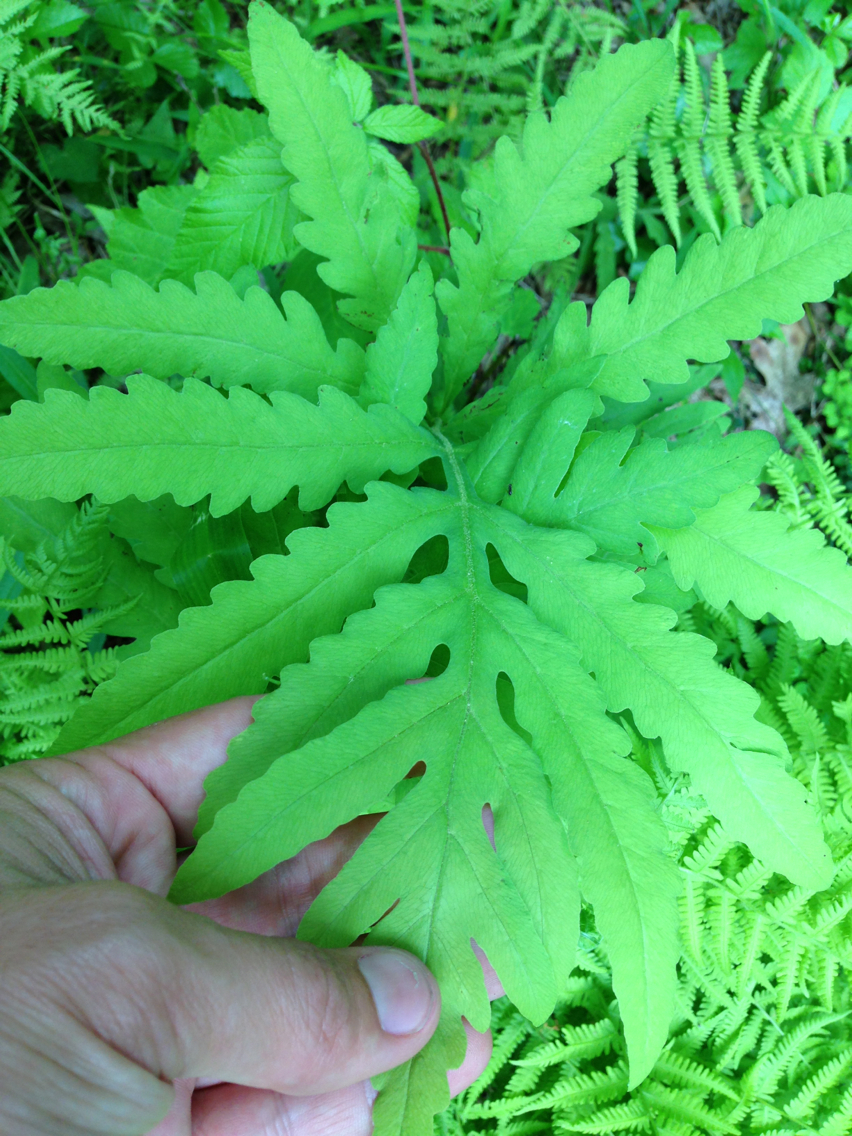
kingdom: Plantae
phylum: Tracheophyta
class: Polypodiopsida
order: Polypodiales
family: Onocleaceae
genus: Onoclea
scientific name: Onoclea sensibilis
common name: Sensitive fern
